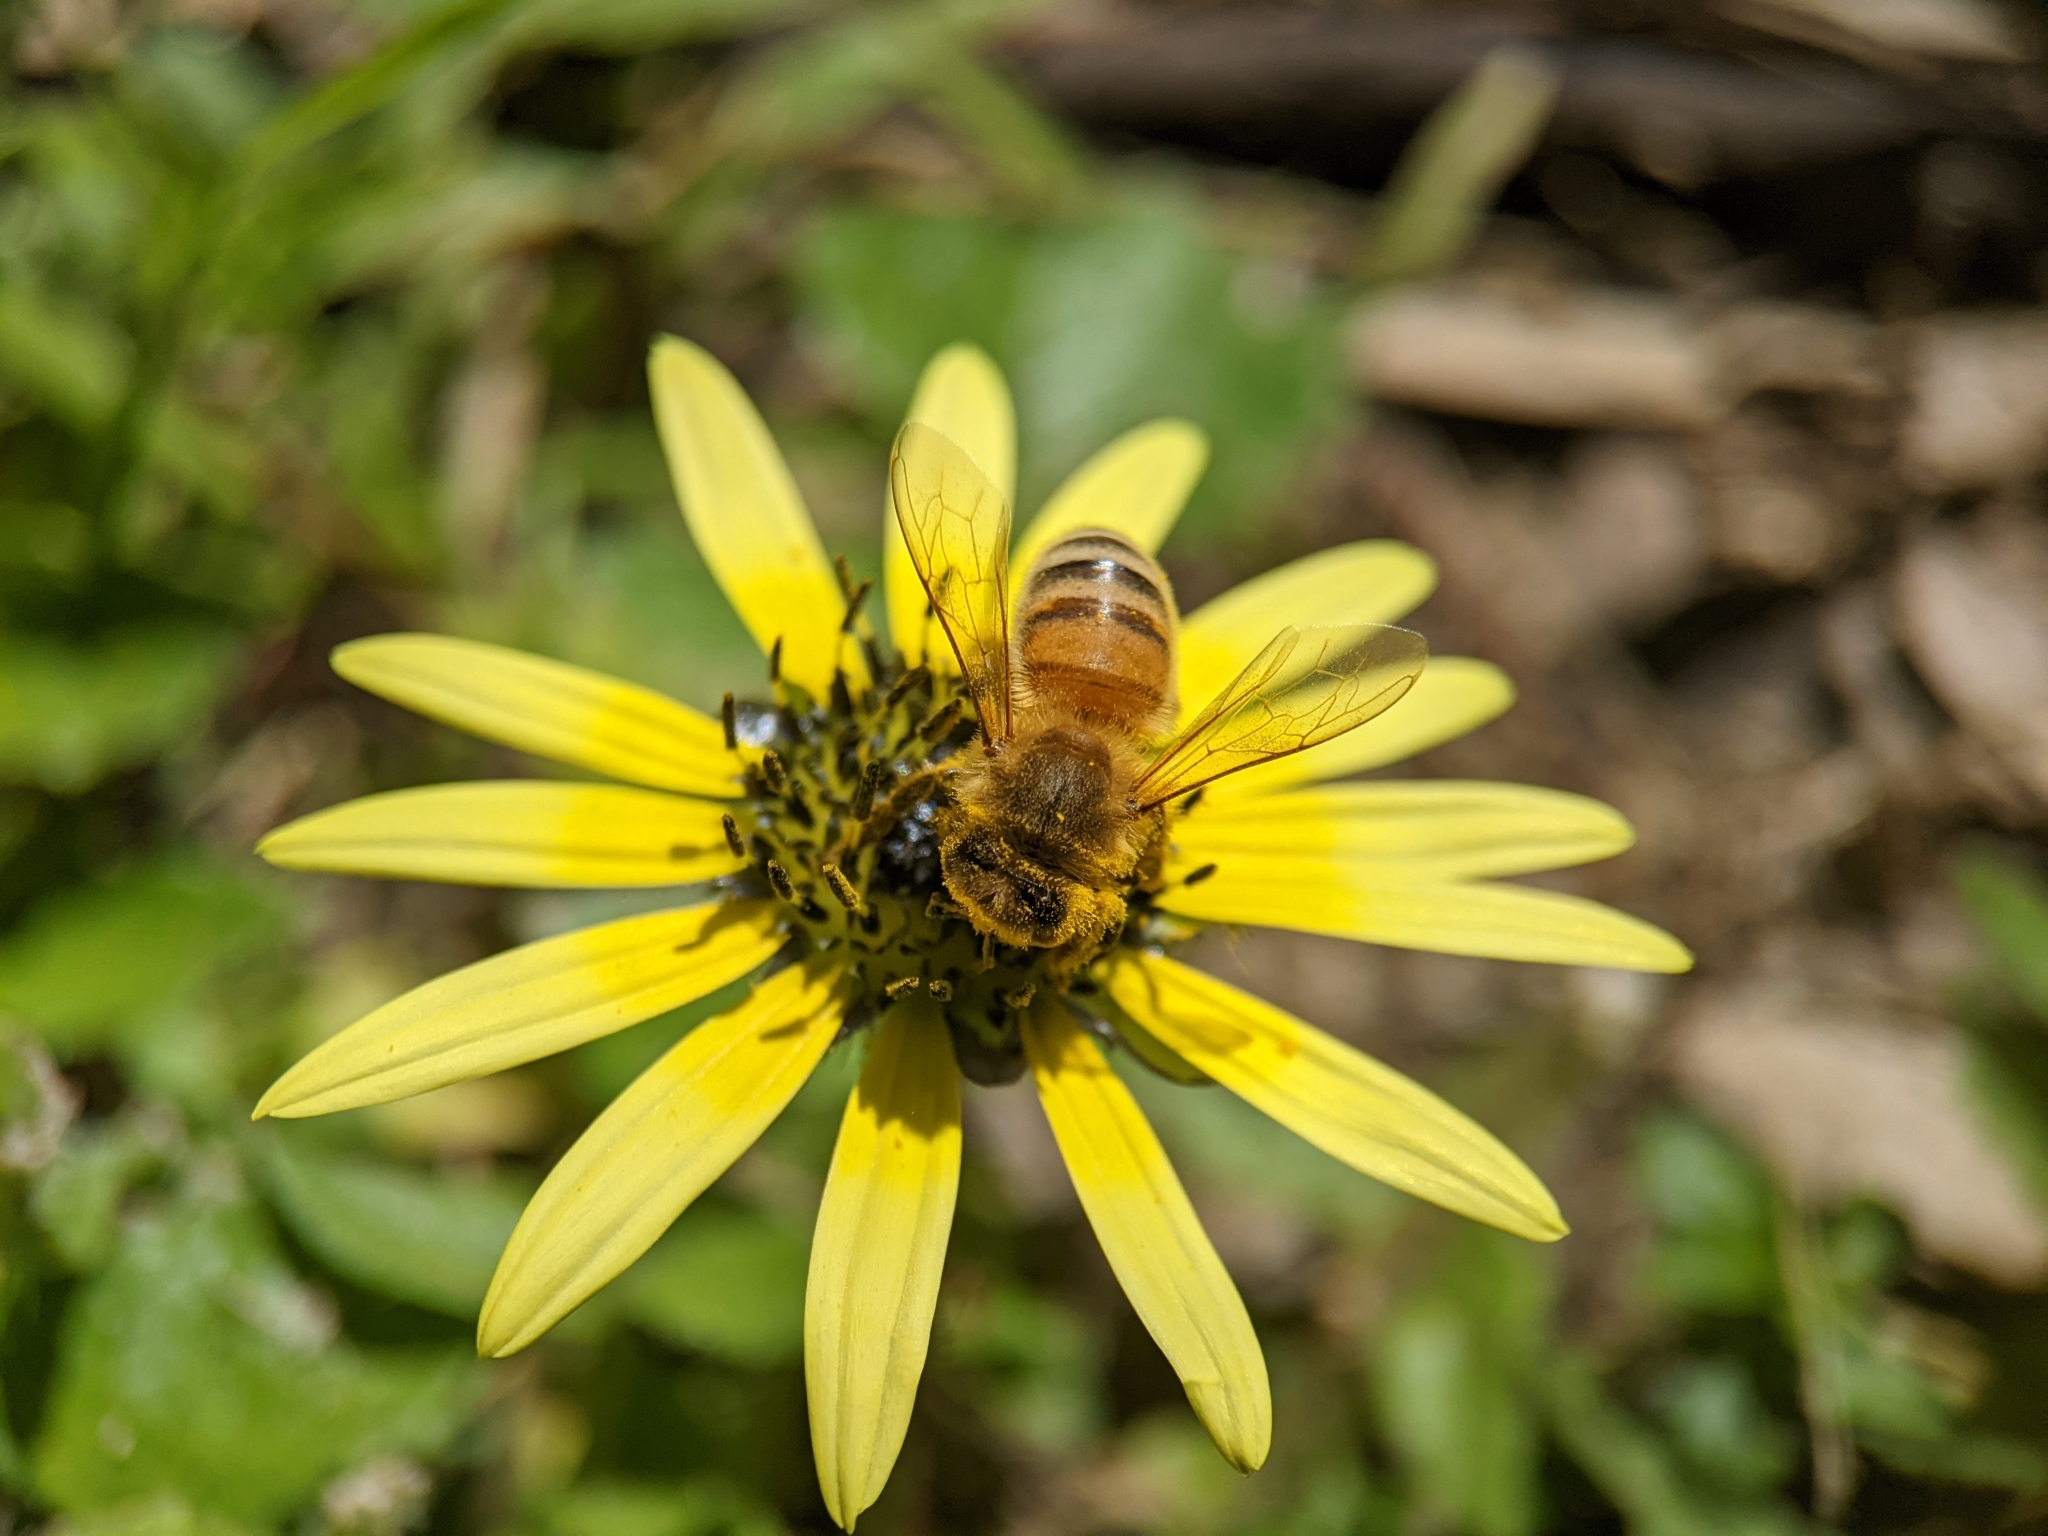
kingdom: Animalia
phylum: Arthropoda
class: Insecta
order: Hymenoptera
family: Apidae
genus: Apis
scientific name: Apis mellifera
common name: Honey bee
